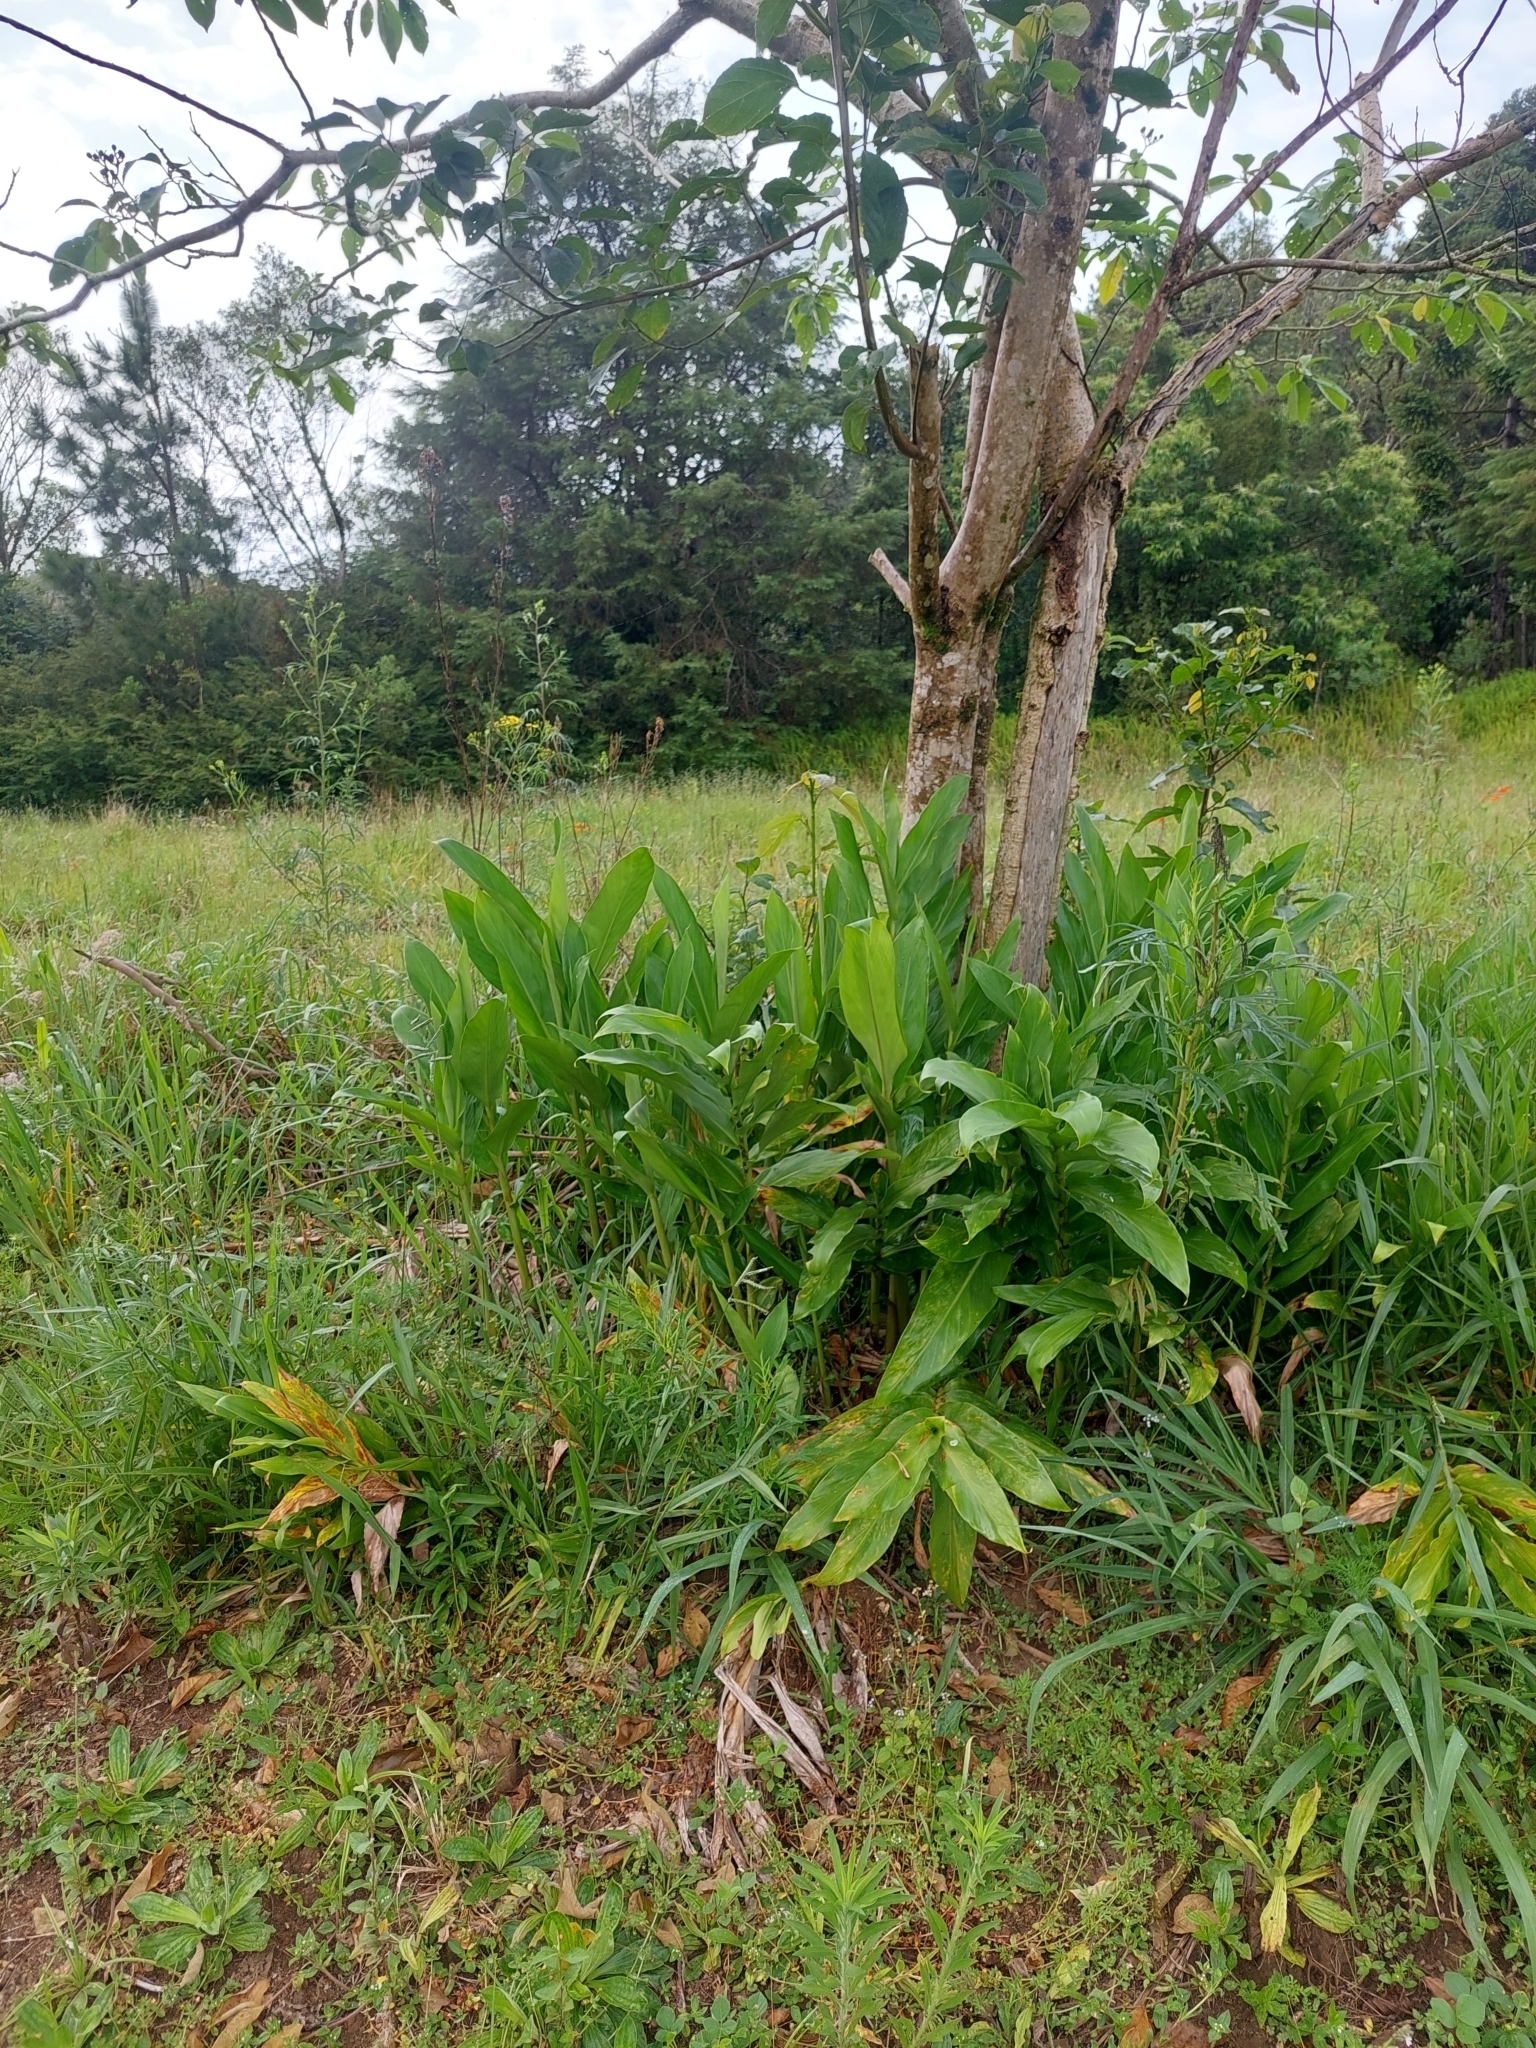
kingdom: Plantae
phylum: Tracheophyta
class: Liliopsida
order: Zingiberales
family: Zingiberaceae
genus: Hedychium
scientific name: Hedychium coronarium
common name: White garland-lily
